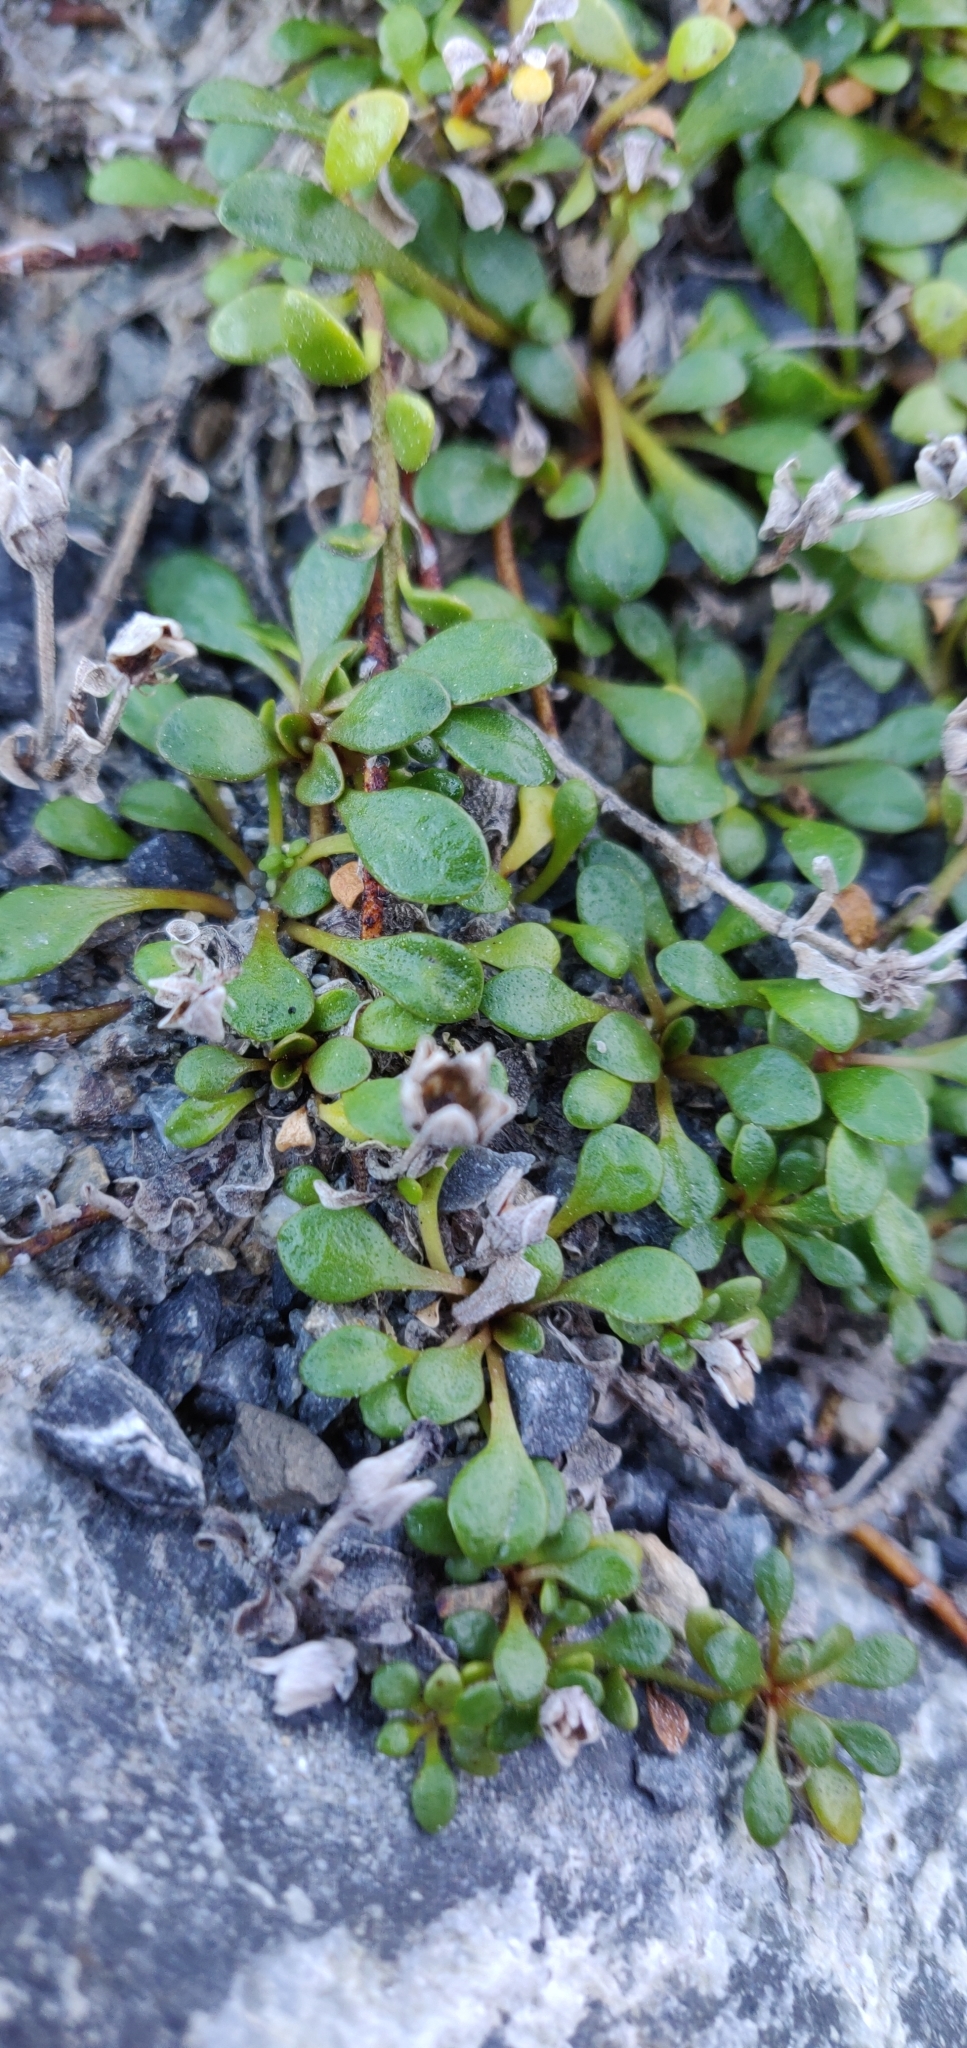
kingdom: Plantae
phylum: Tracheophyta
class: Magnoliopsida
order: Ericales
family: Primulaceae
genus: Samolus
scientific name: Samolus repens
